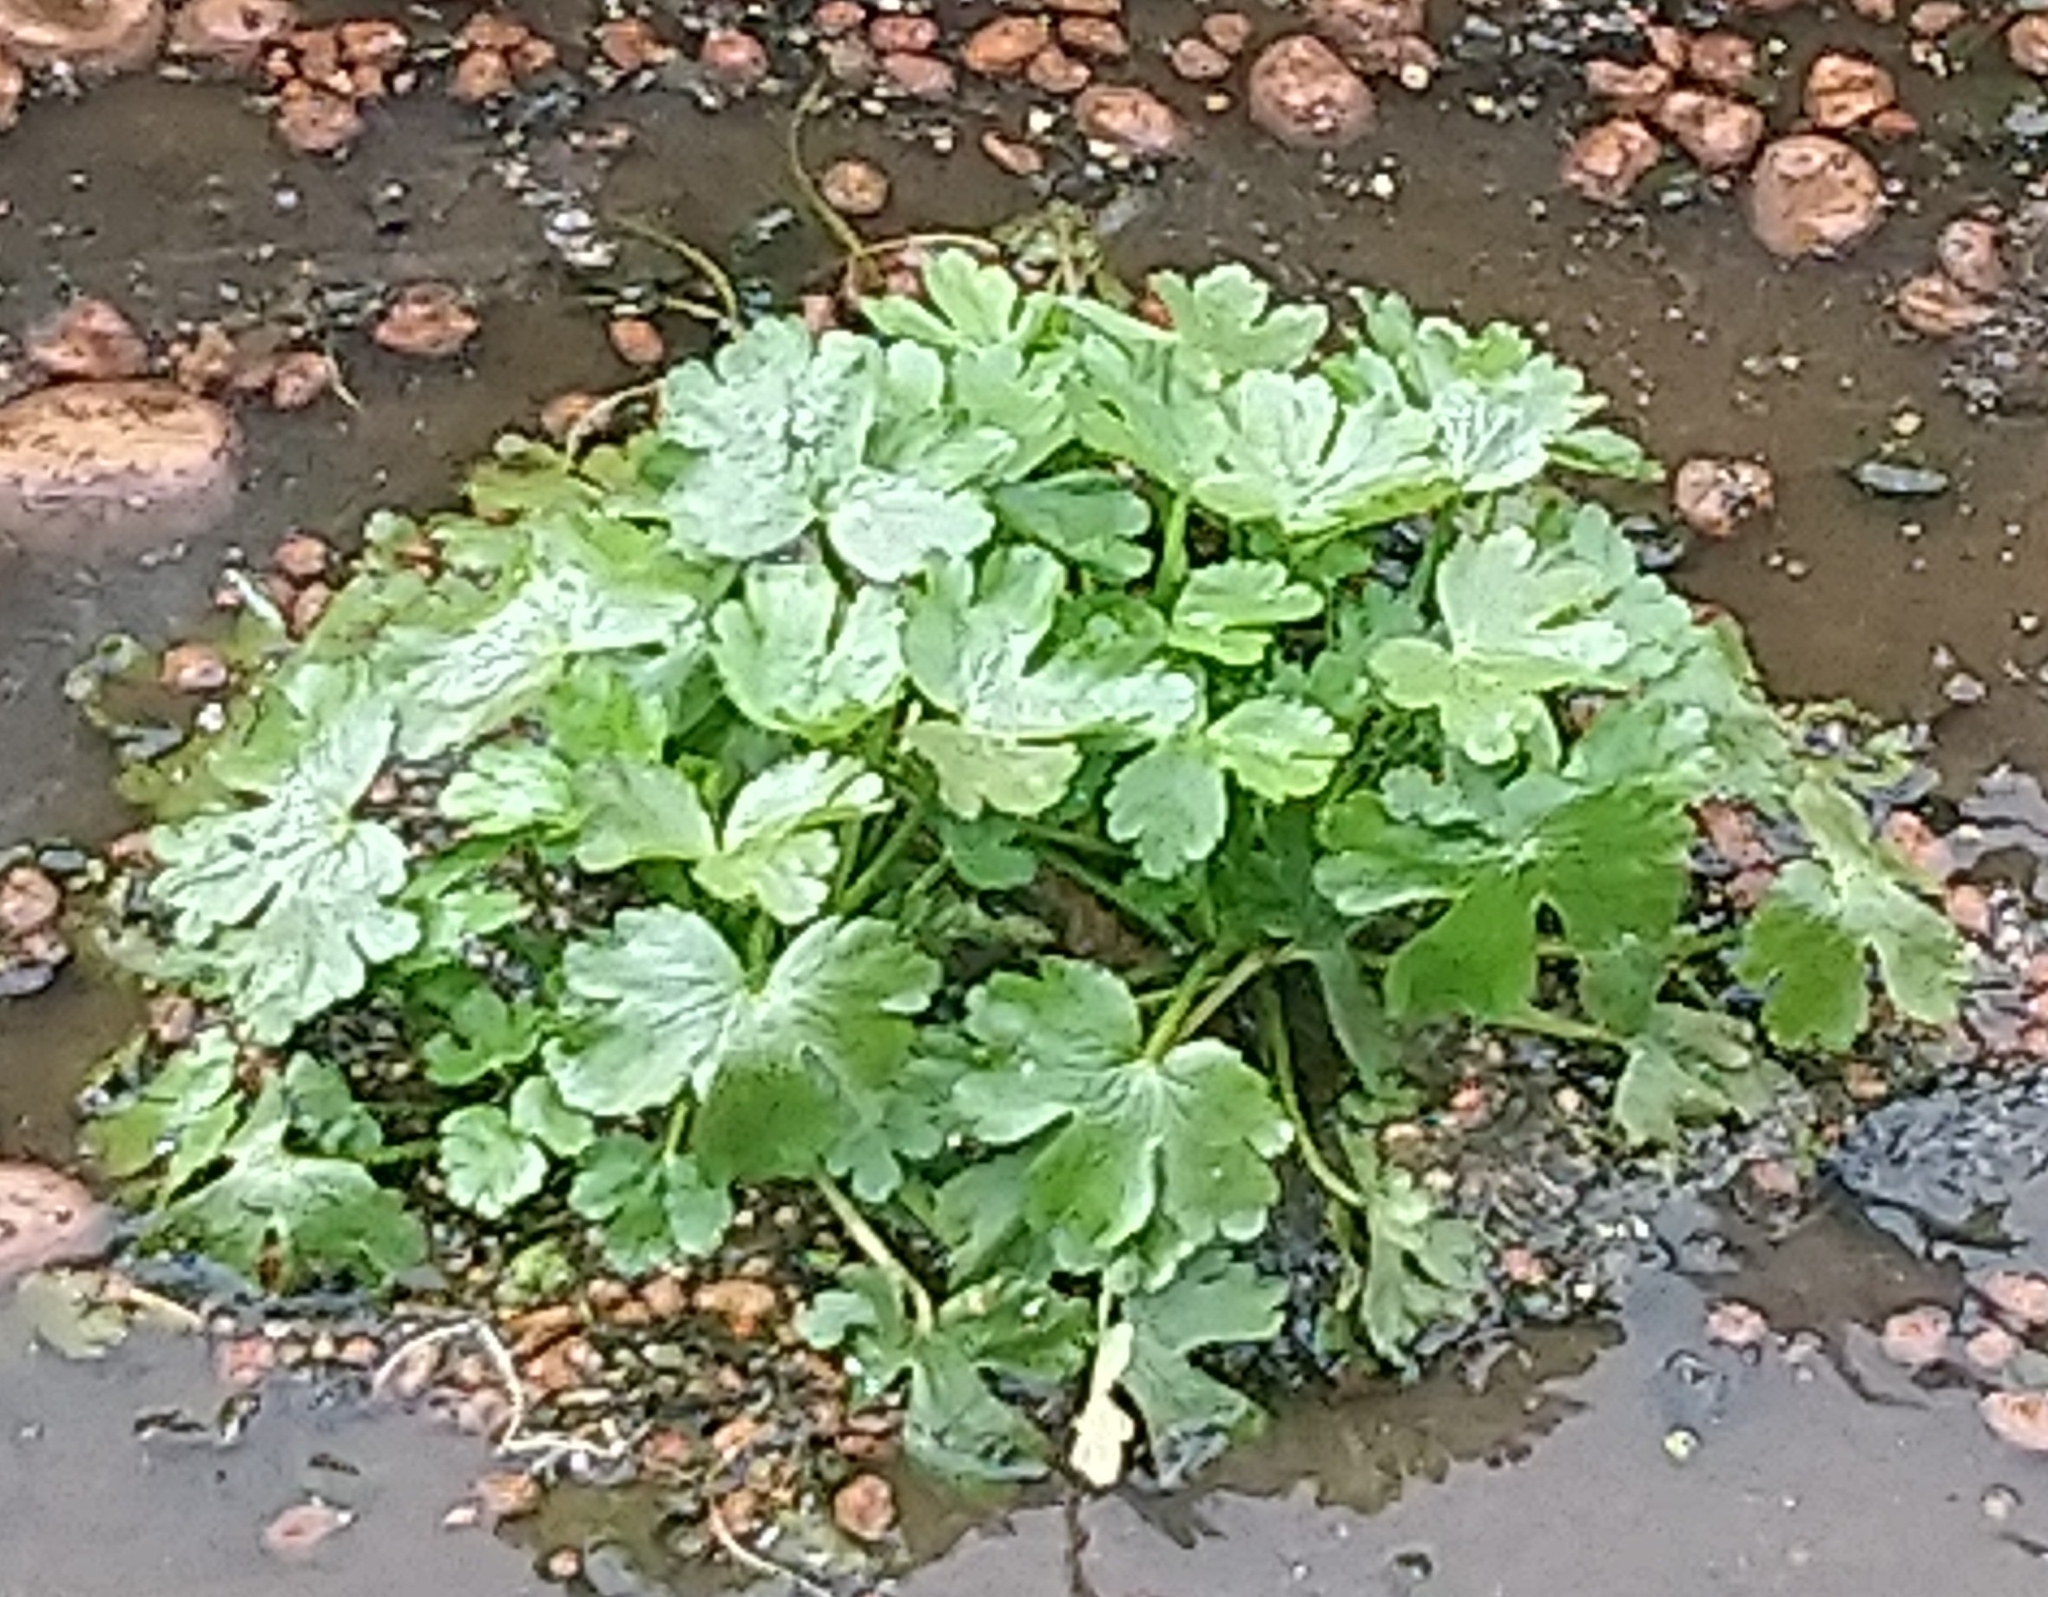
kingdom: Plantae
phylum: Tracheophyta
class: Magnoliopsida
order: Ranunculales
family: Ranunculaceae
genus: Ranunculus
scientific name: Ranunculus sceleratus
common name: Celery-leaved buttercup
